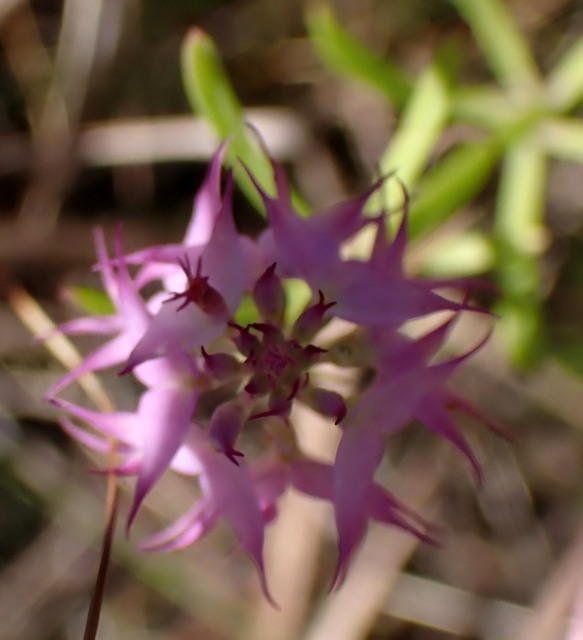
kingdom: Plantae
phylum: Tracheophyta
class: Magnoliopsida
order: Fabales
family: Polygalaceae
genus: Polygala
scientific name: Polygala cruciata
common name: Drumheads
